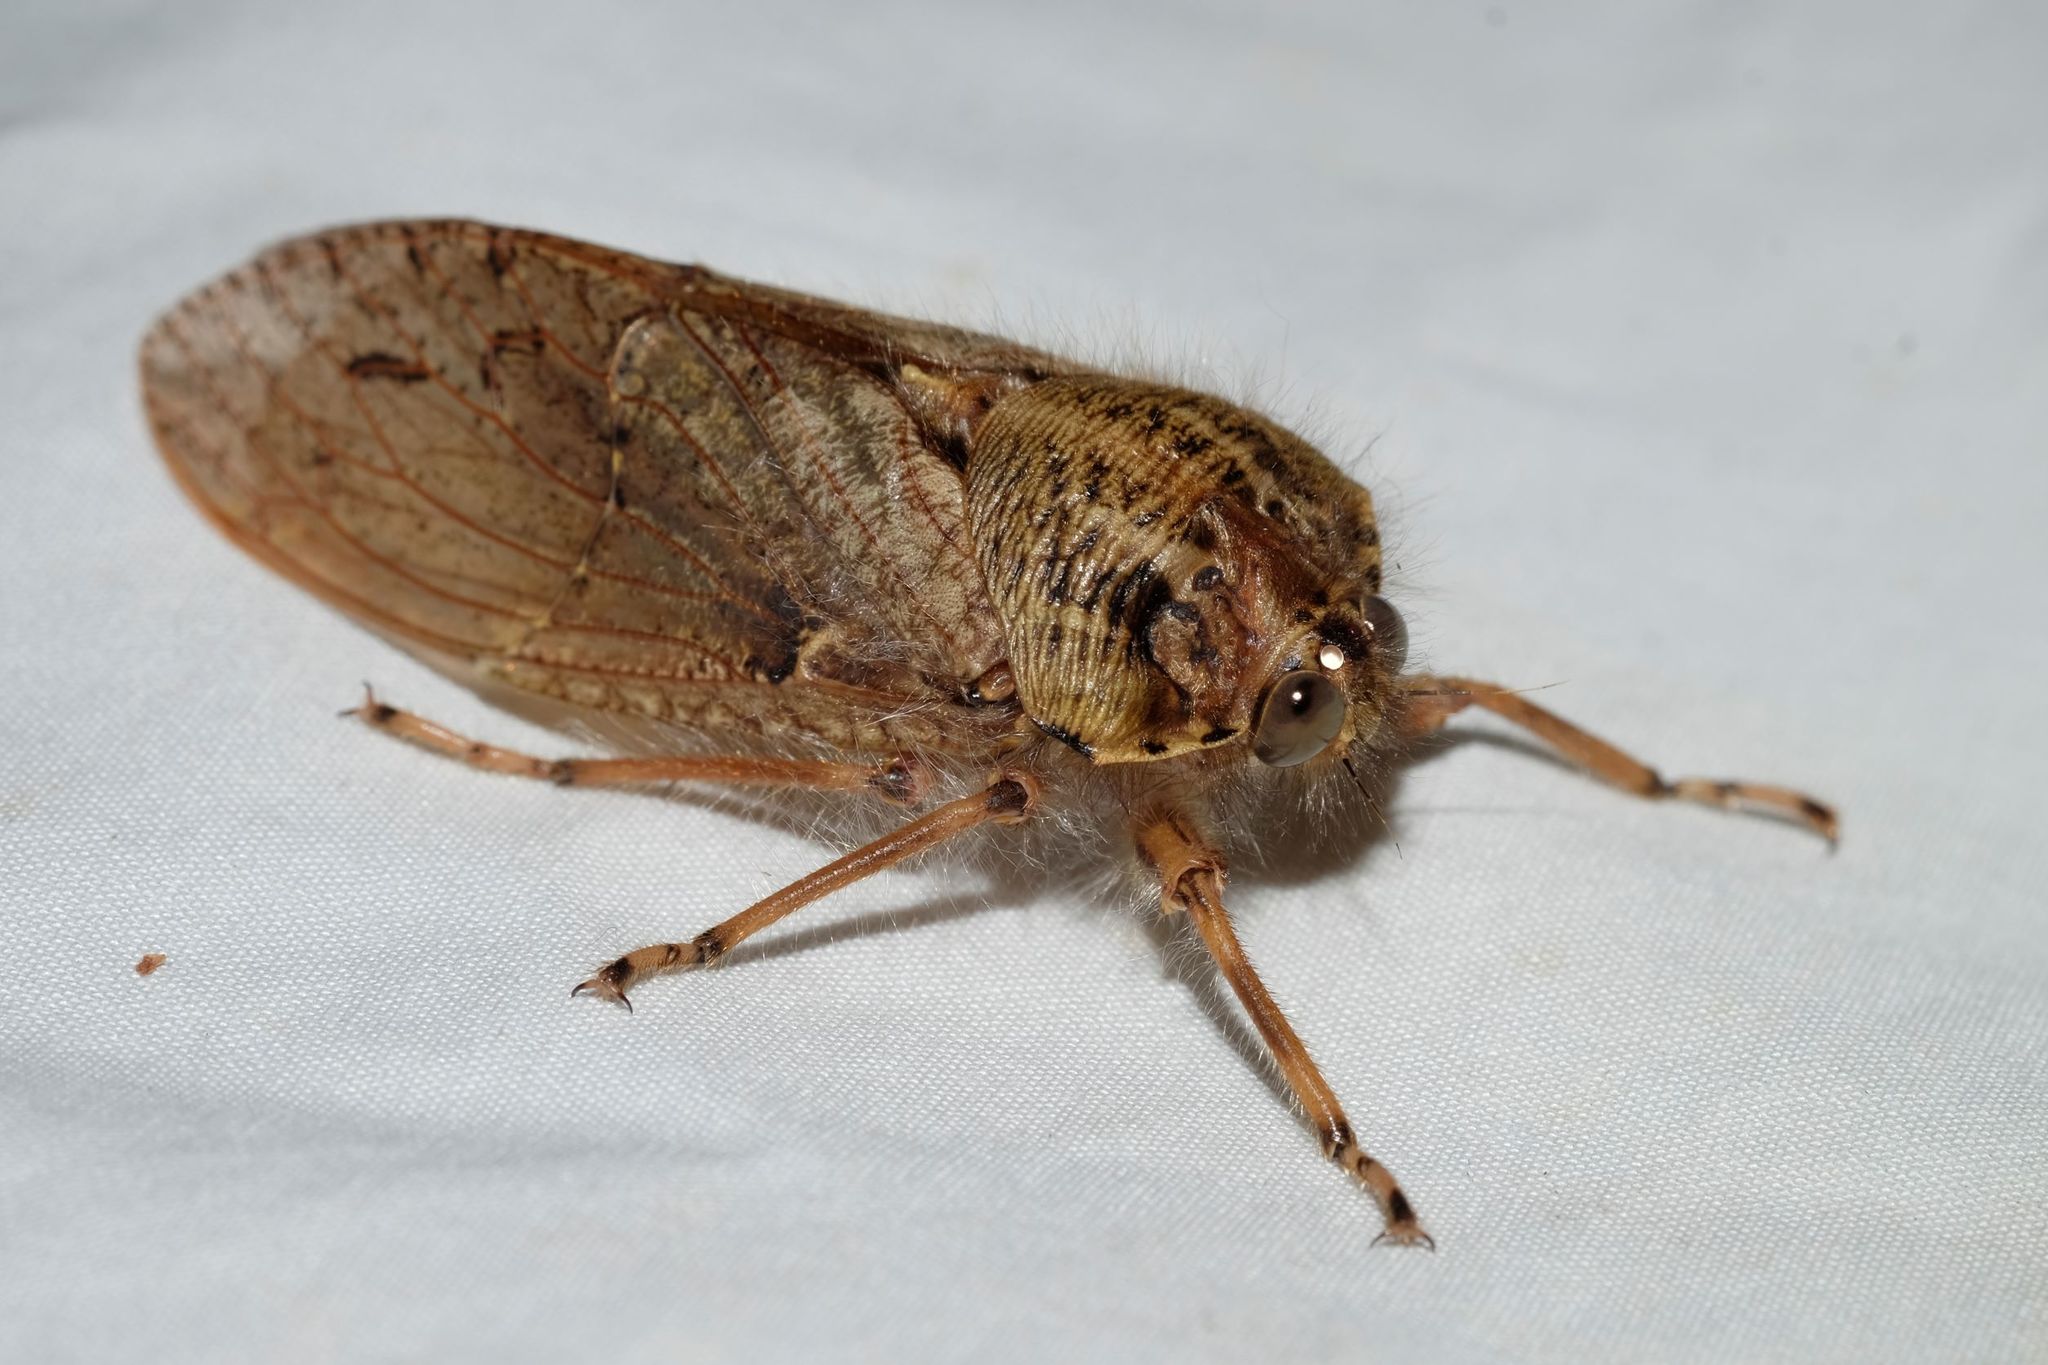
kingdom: Animalia
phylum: Arthropoda
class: Insecta
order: Hemiptera
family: Tettigarctidae
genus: Tettigarcta
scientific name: Tettigarcta crinita
